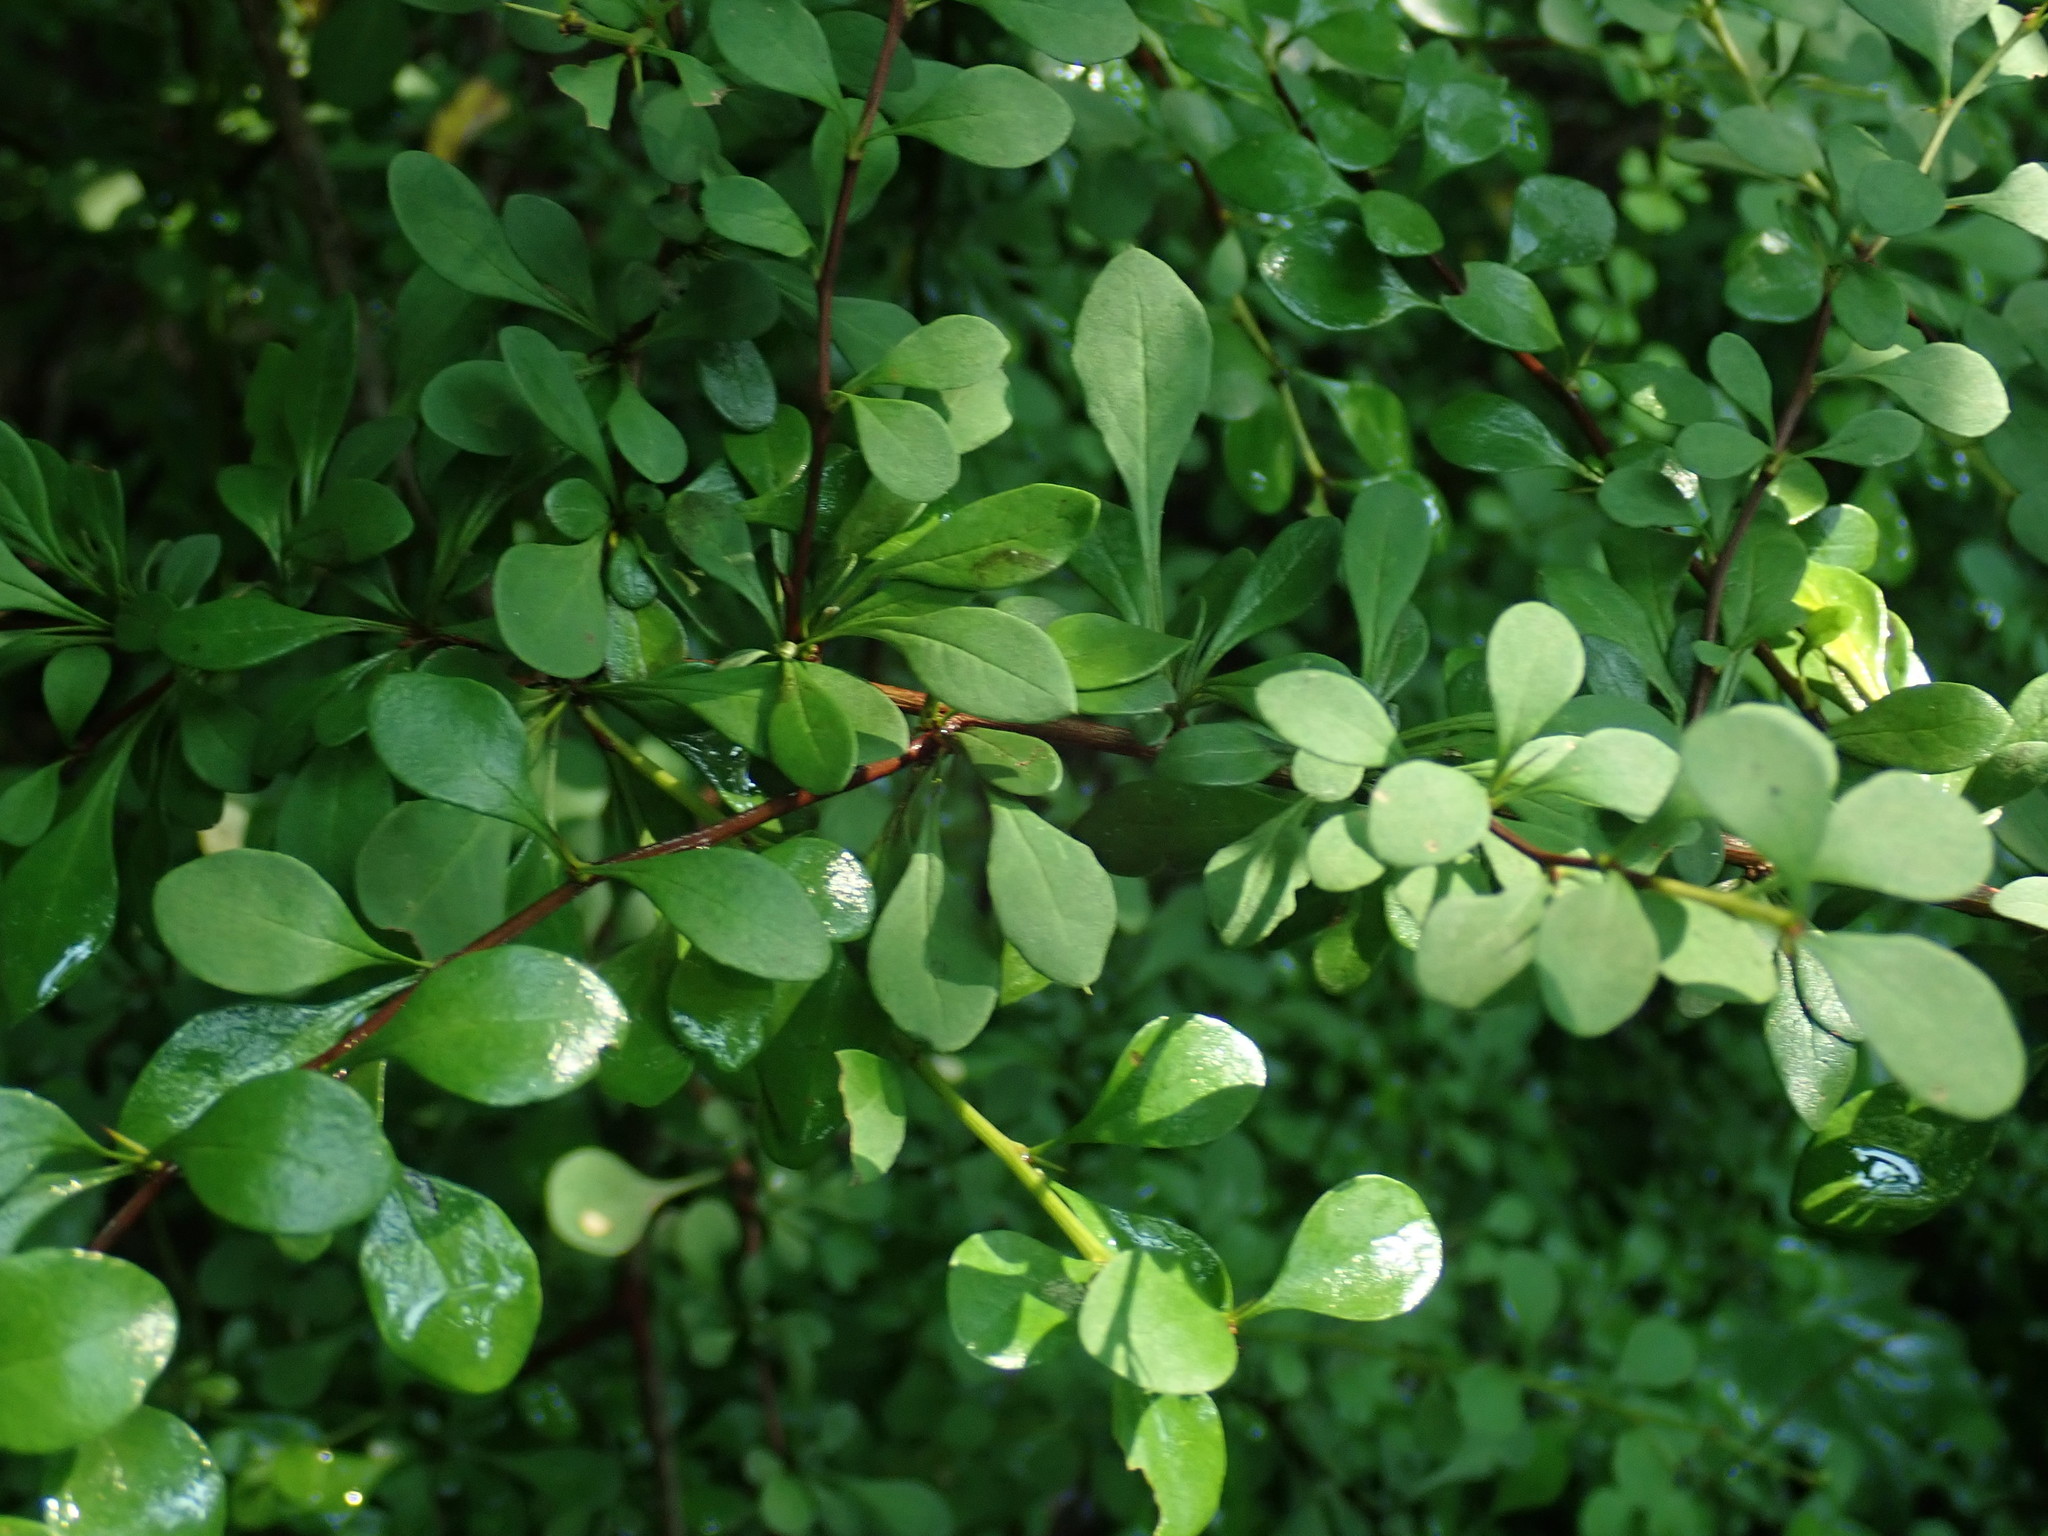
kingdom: Plantae
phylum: Tracheophyta
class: Magnoliopsida
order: Ranunculales
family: Berberidaceae
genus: Berberis
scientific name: Berberis thunbergii
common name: Japanese barberry
